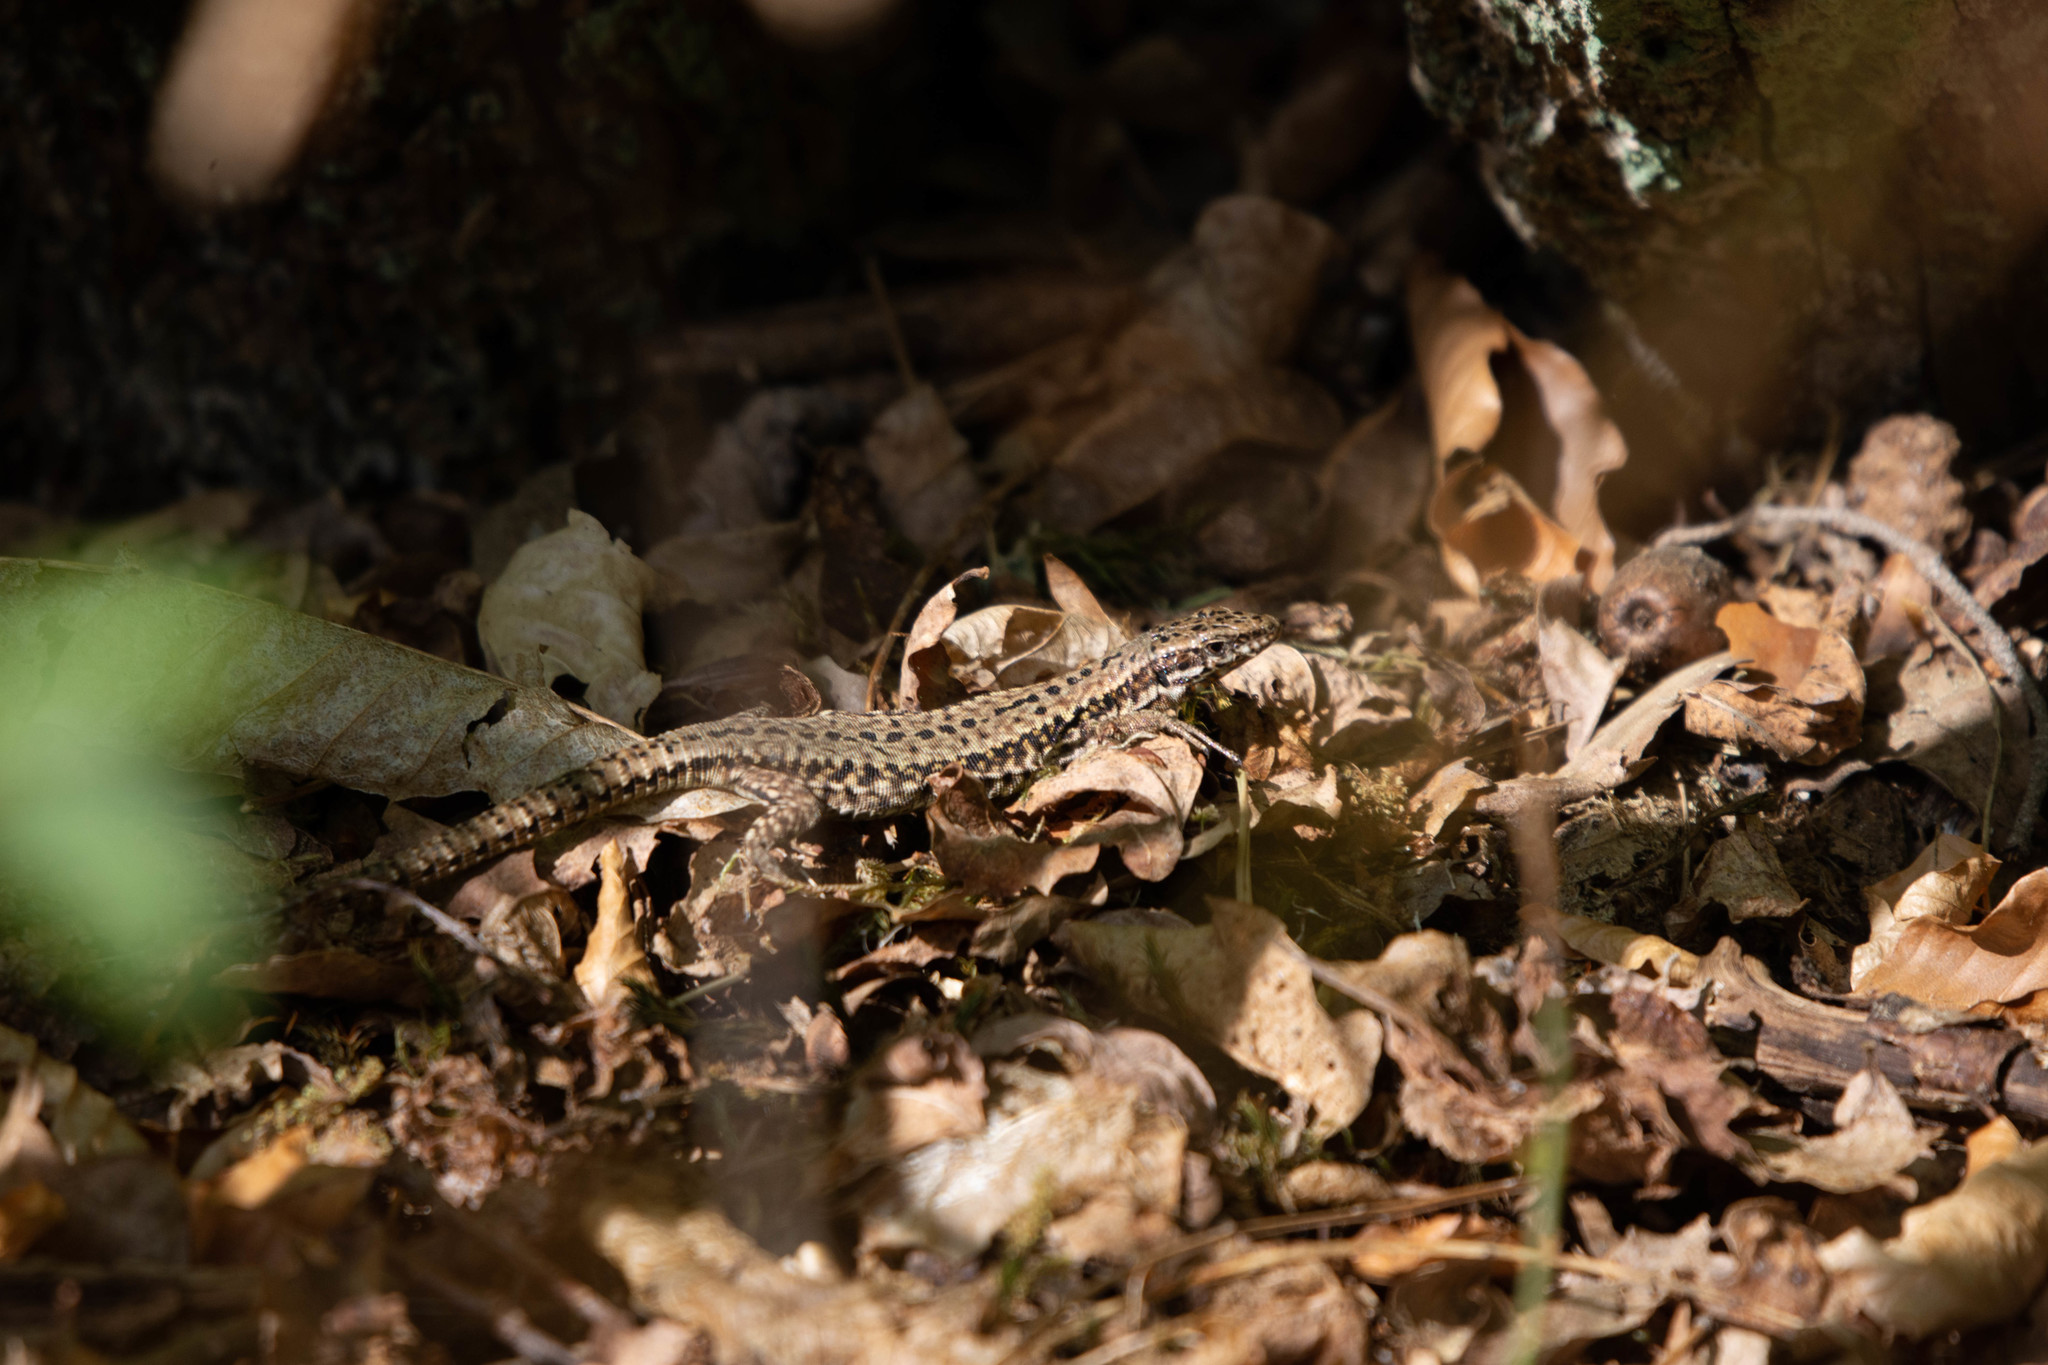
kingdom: Animalia
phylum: Chordata
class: Squamata
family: Lacertidae
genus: Podarcis
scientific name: Podarcis muralis
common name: Common wall lizard
